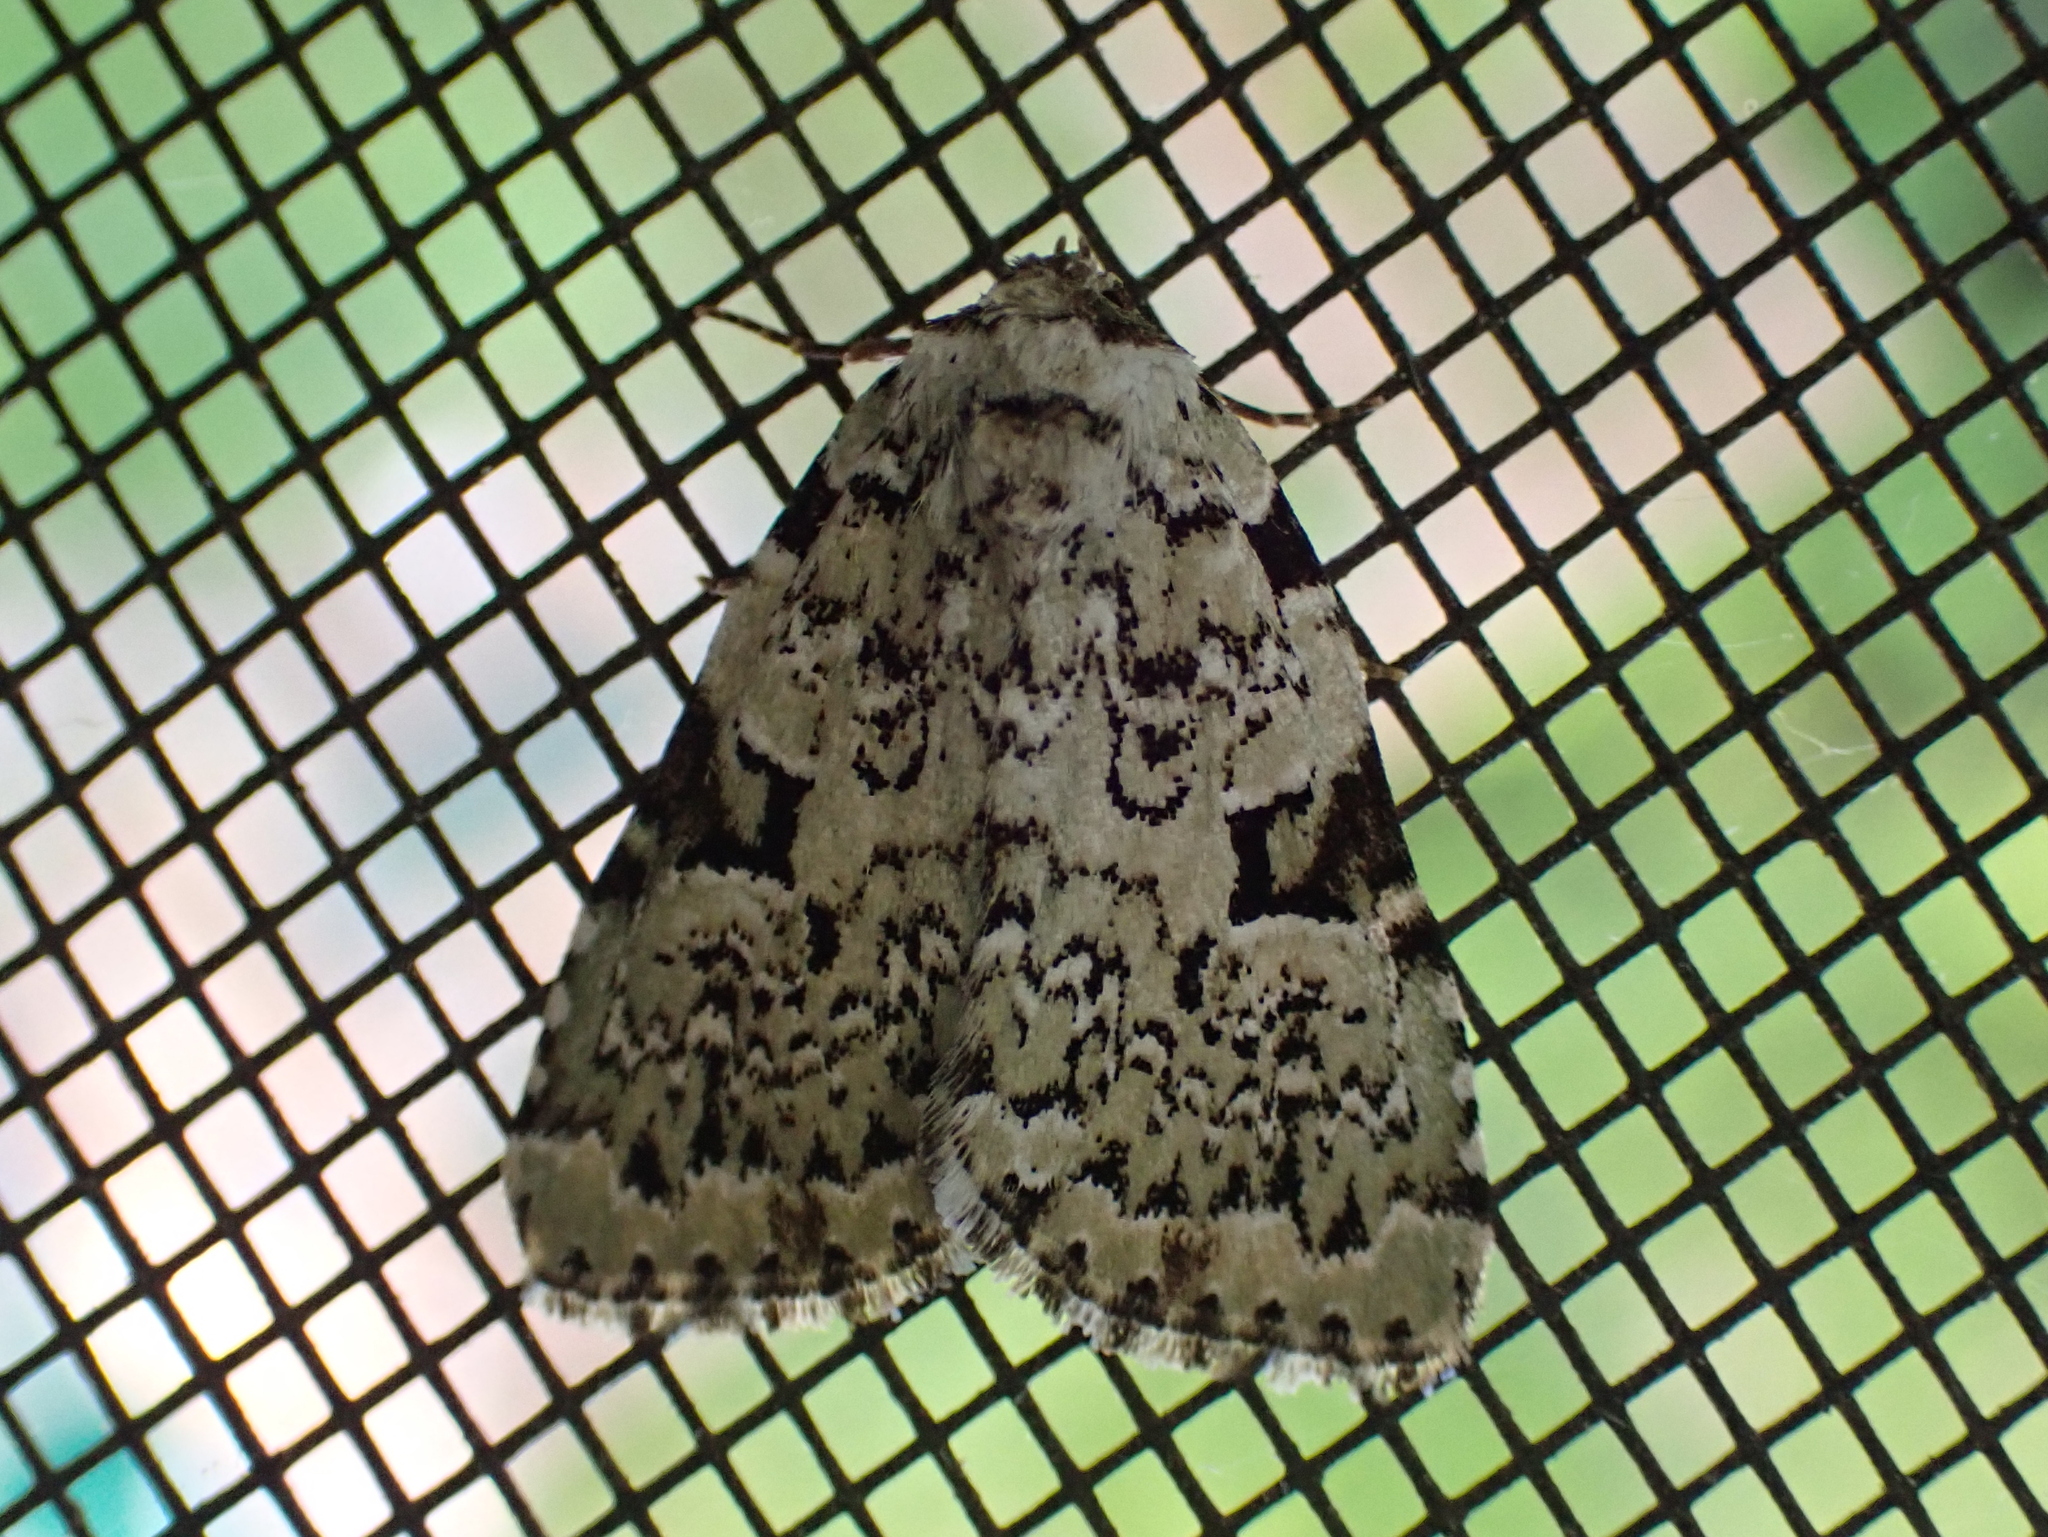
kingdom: Animalia
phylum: Arthropoda
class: Insecta
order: Lepidoptera
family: Noctuidae
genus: Leuconycta
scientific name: Leuconycta diphteroides
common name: Green leuconycta moth
